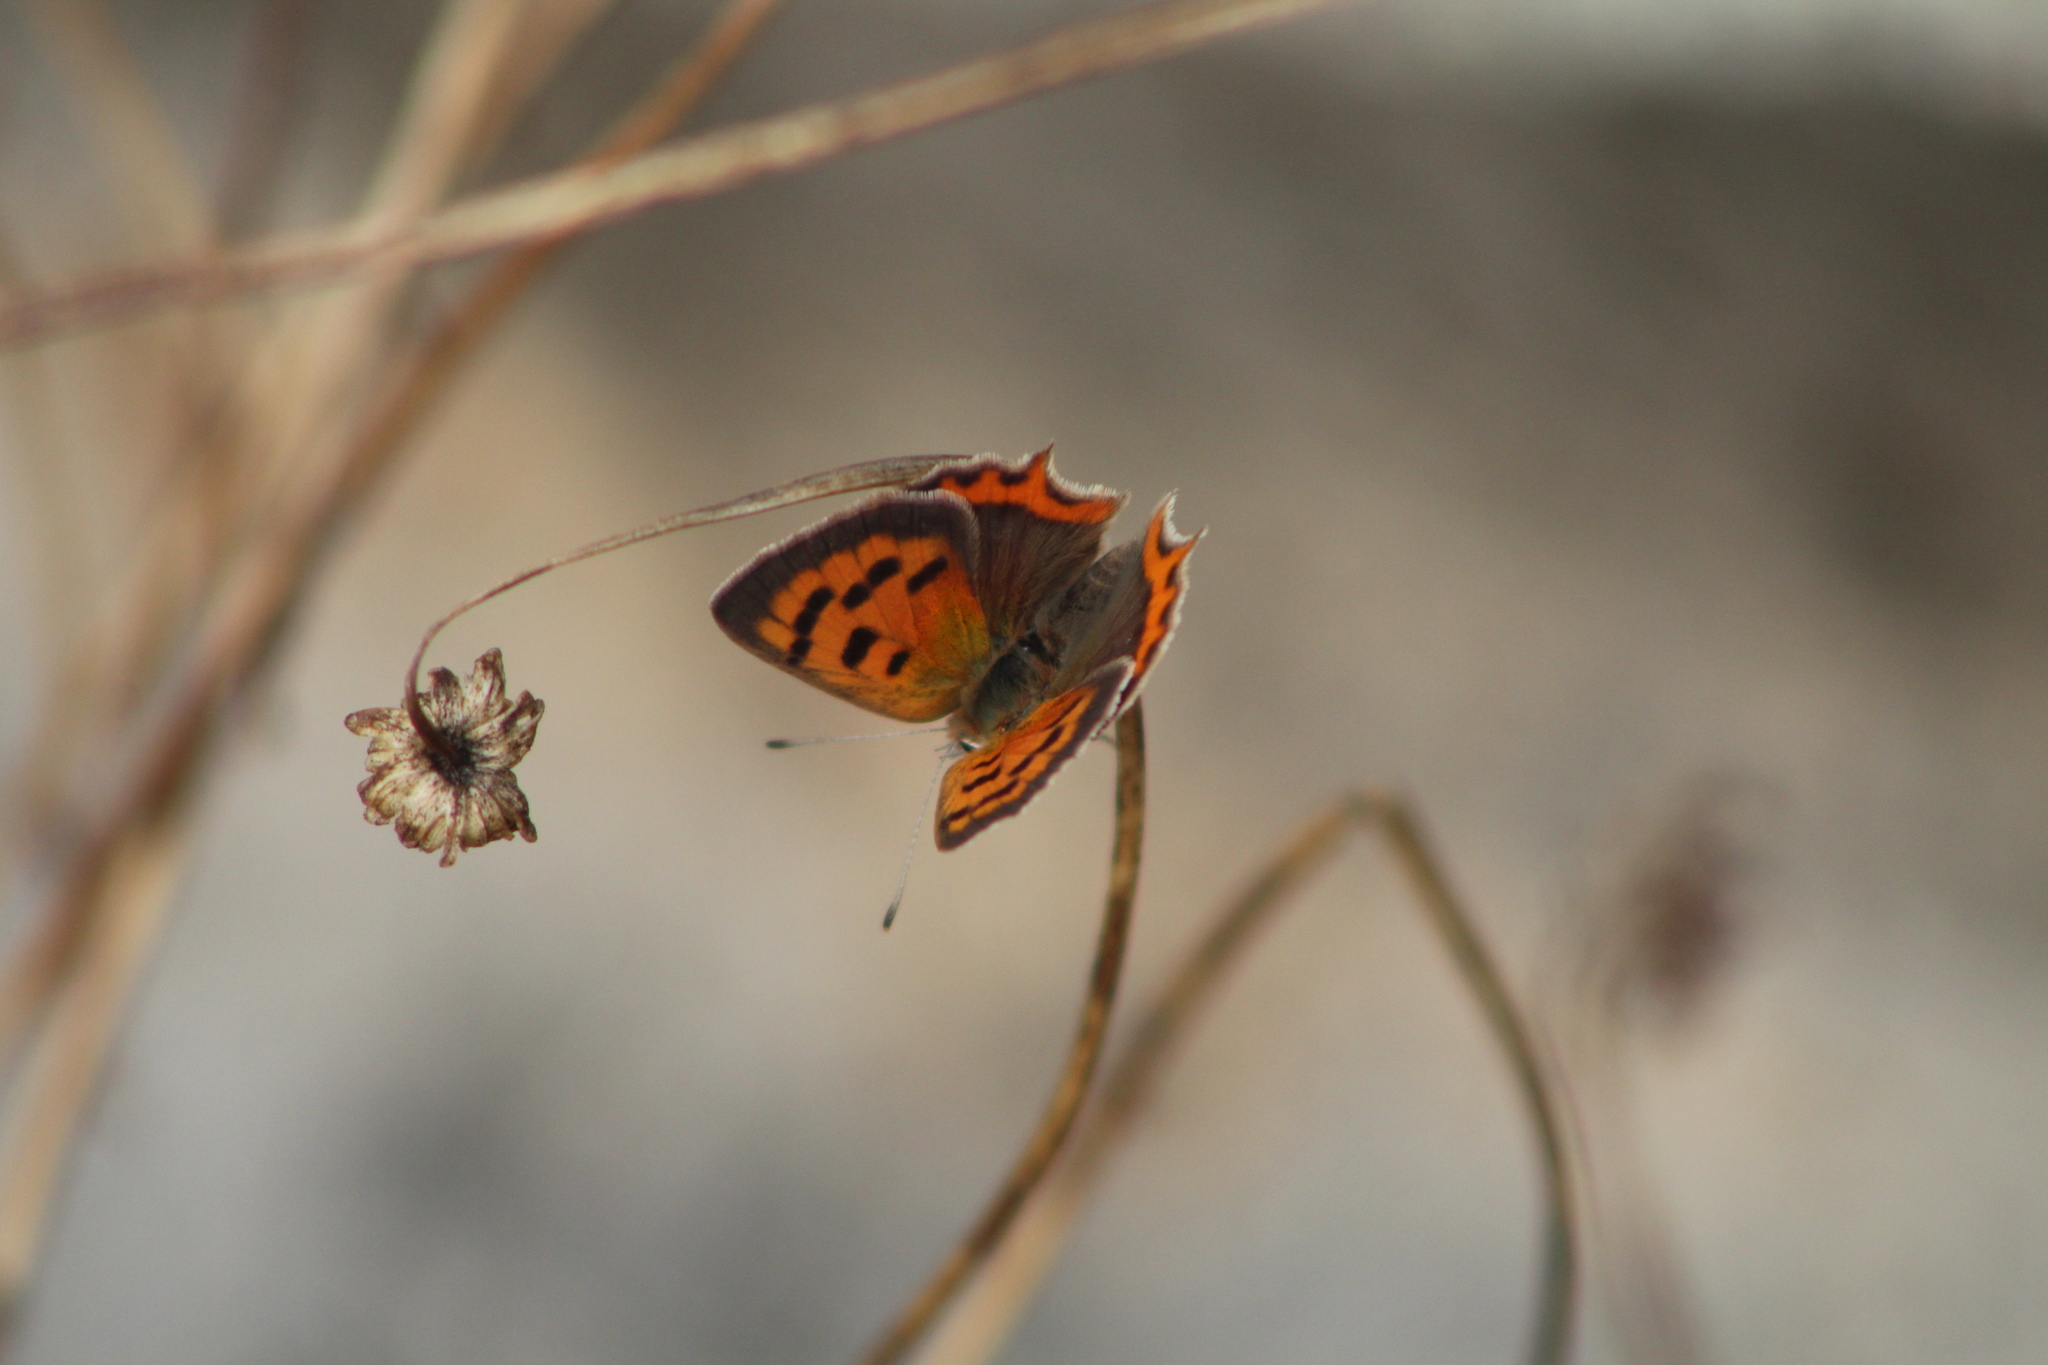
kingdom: Animalia
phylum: Arthropoda
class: Insecta
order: Lepidoptera
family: Lycaenidae
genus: Lycaena
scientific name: Lycaena phlaeas
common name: Small copper
